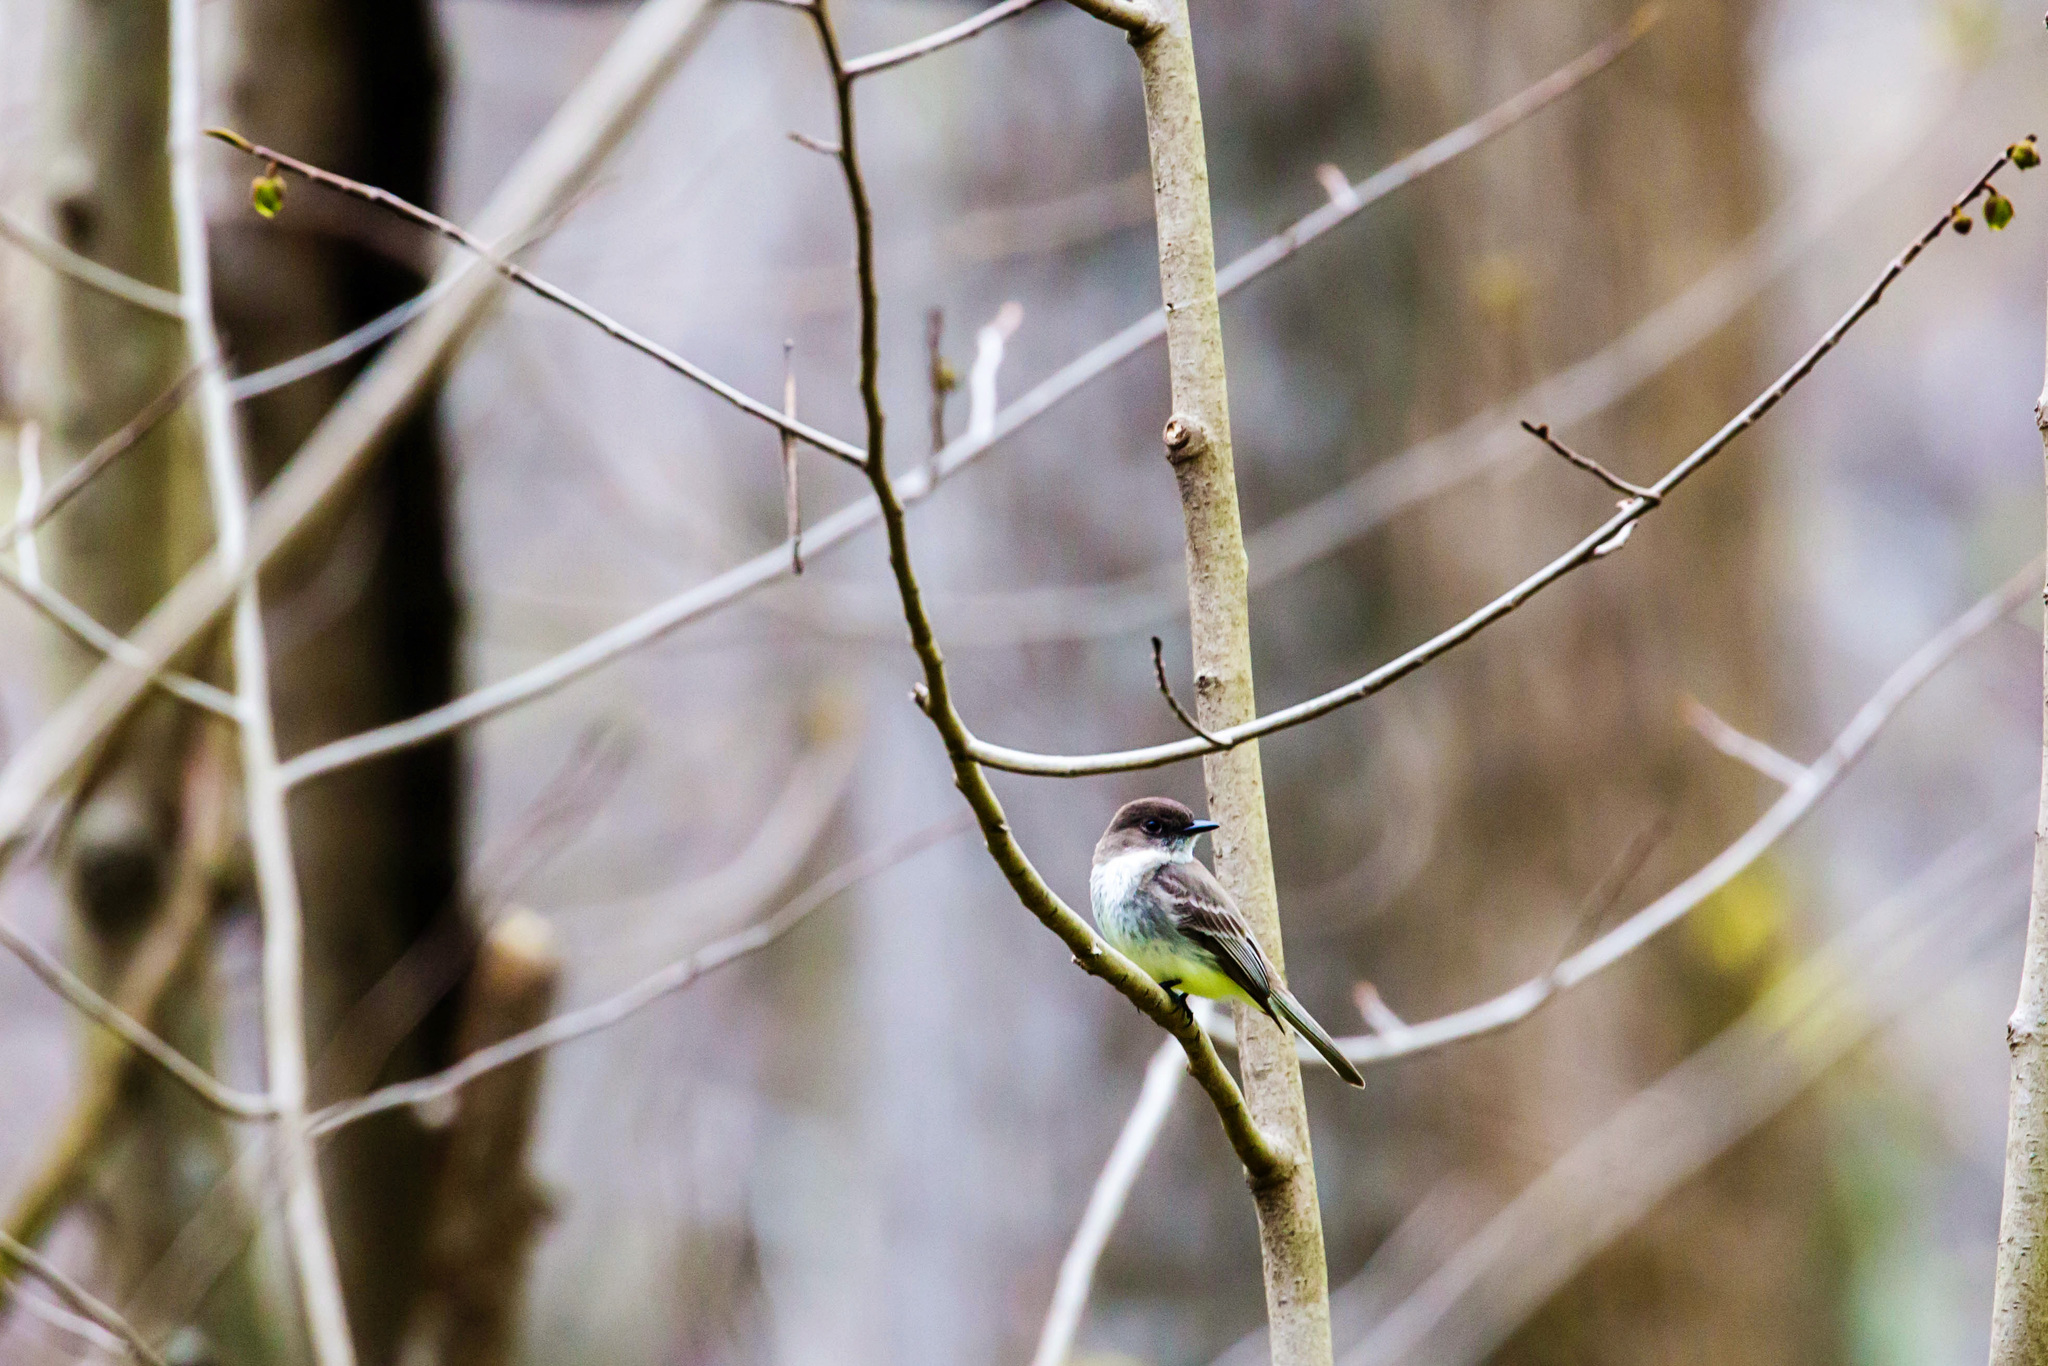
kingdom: Animalia
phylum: Chordata
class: Aves
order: Passeriformes
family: Tyrannidae
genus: Sayornis
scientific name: Sayornis phoebe
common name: Eastern phoebe
